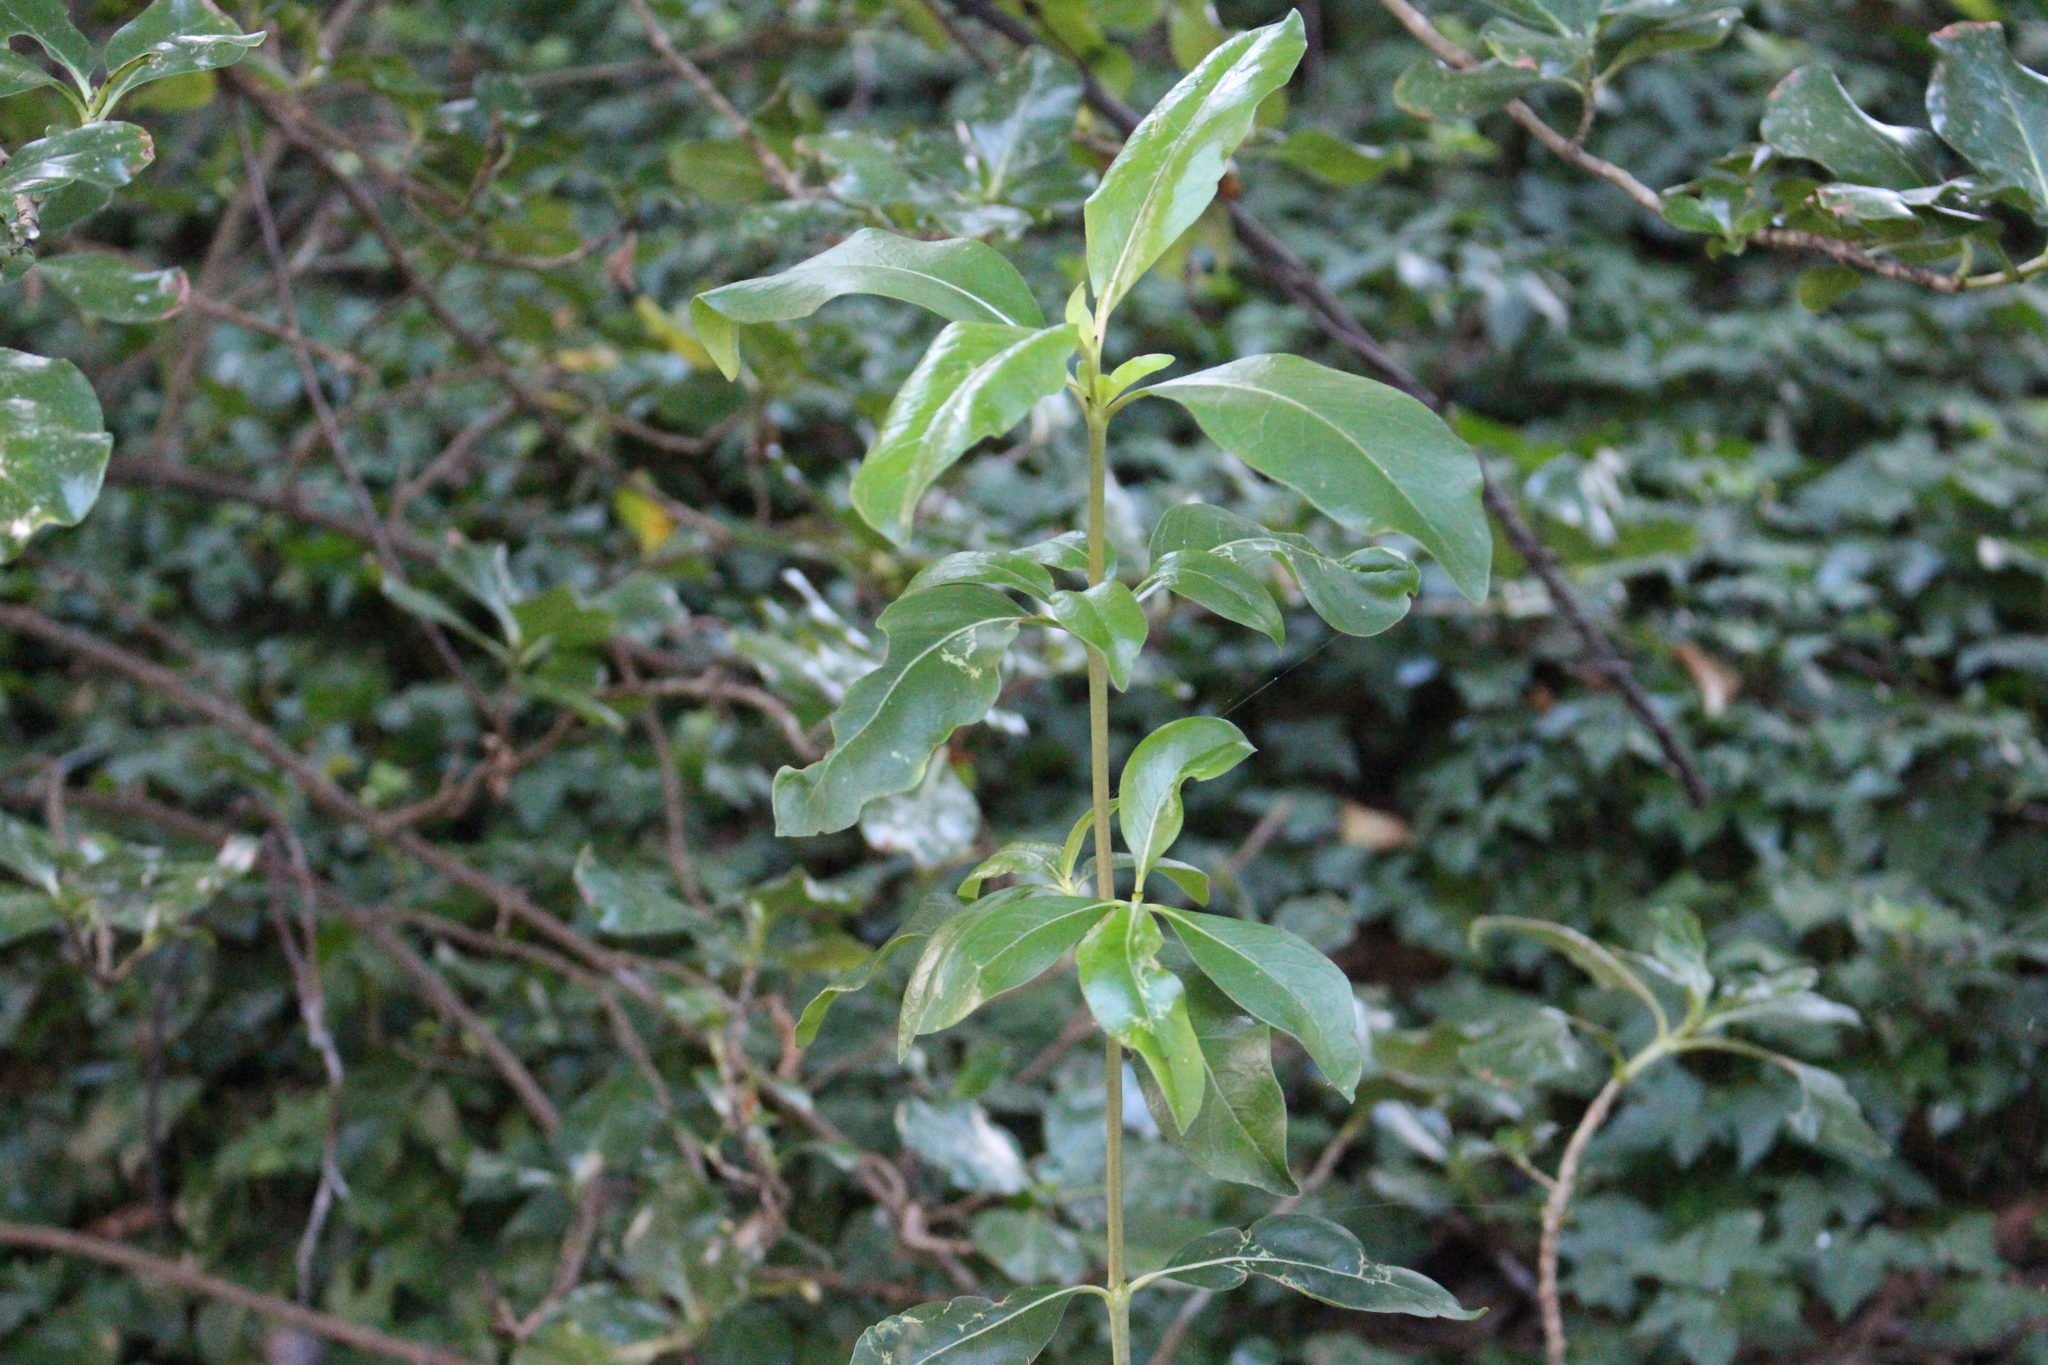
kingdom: Plantae
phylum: Tracheophyta
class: Magnoliopsida
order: Gentianales
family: Rubiaceae
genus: Coprosma
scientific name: Coprosma robusta
